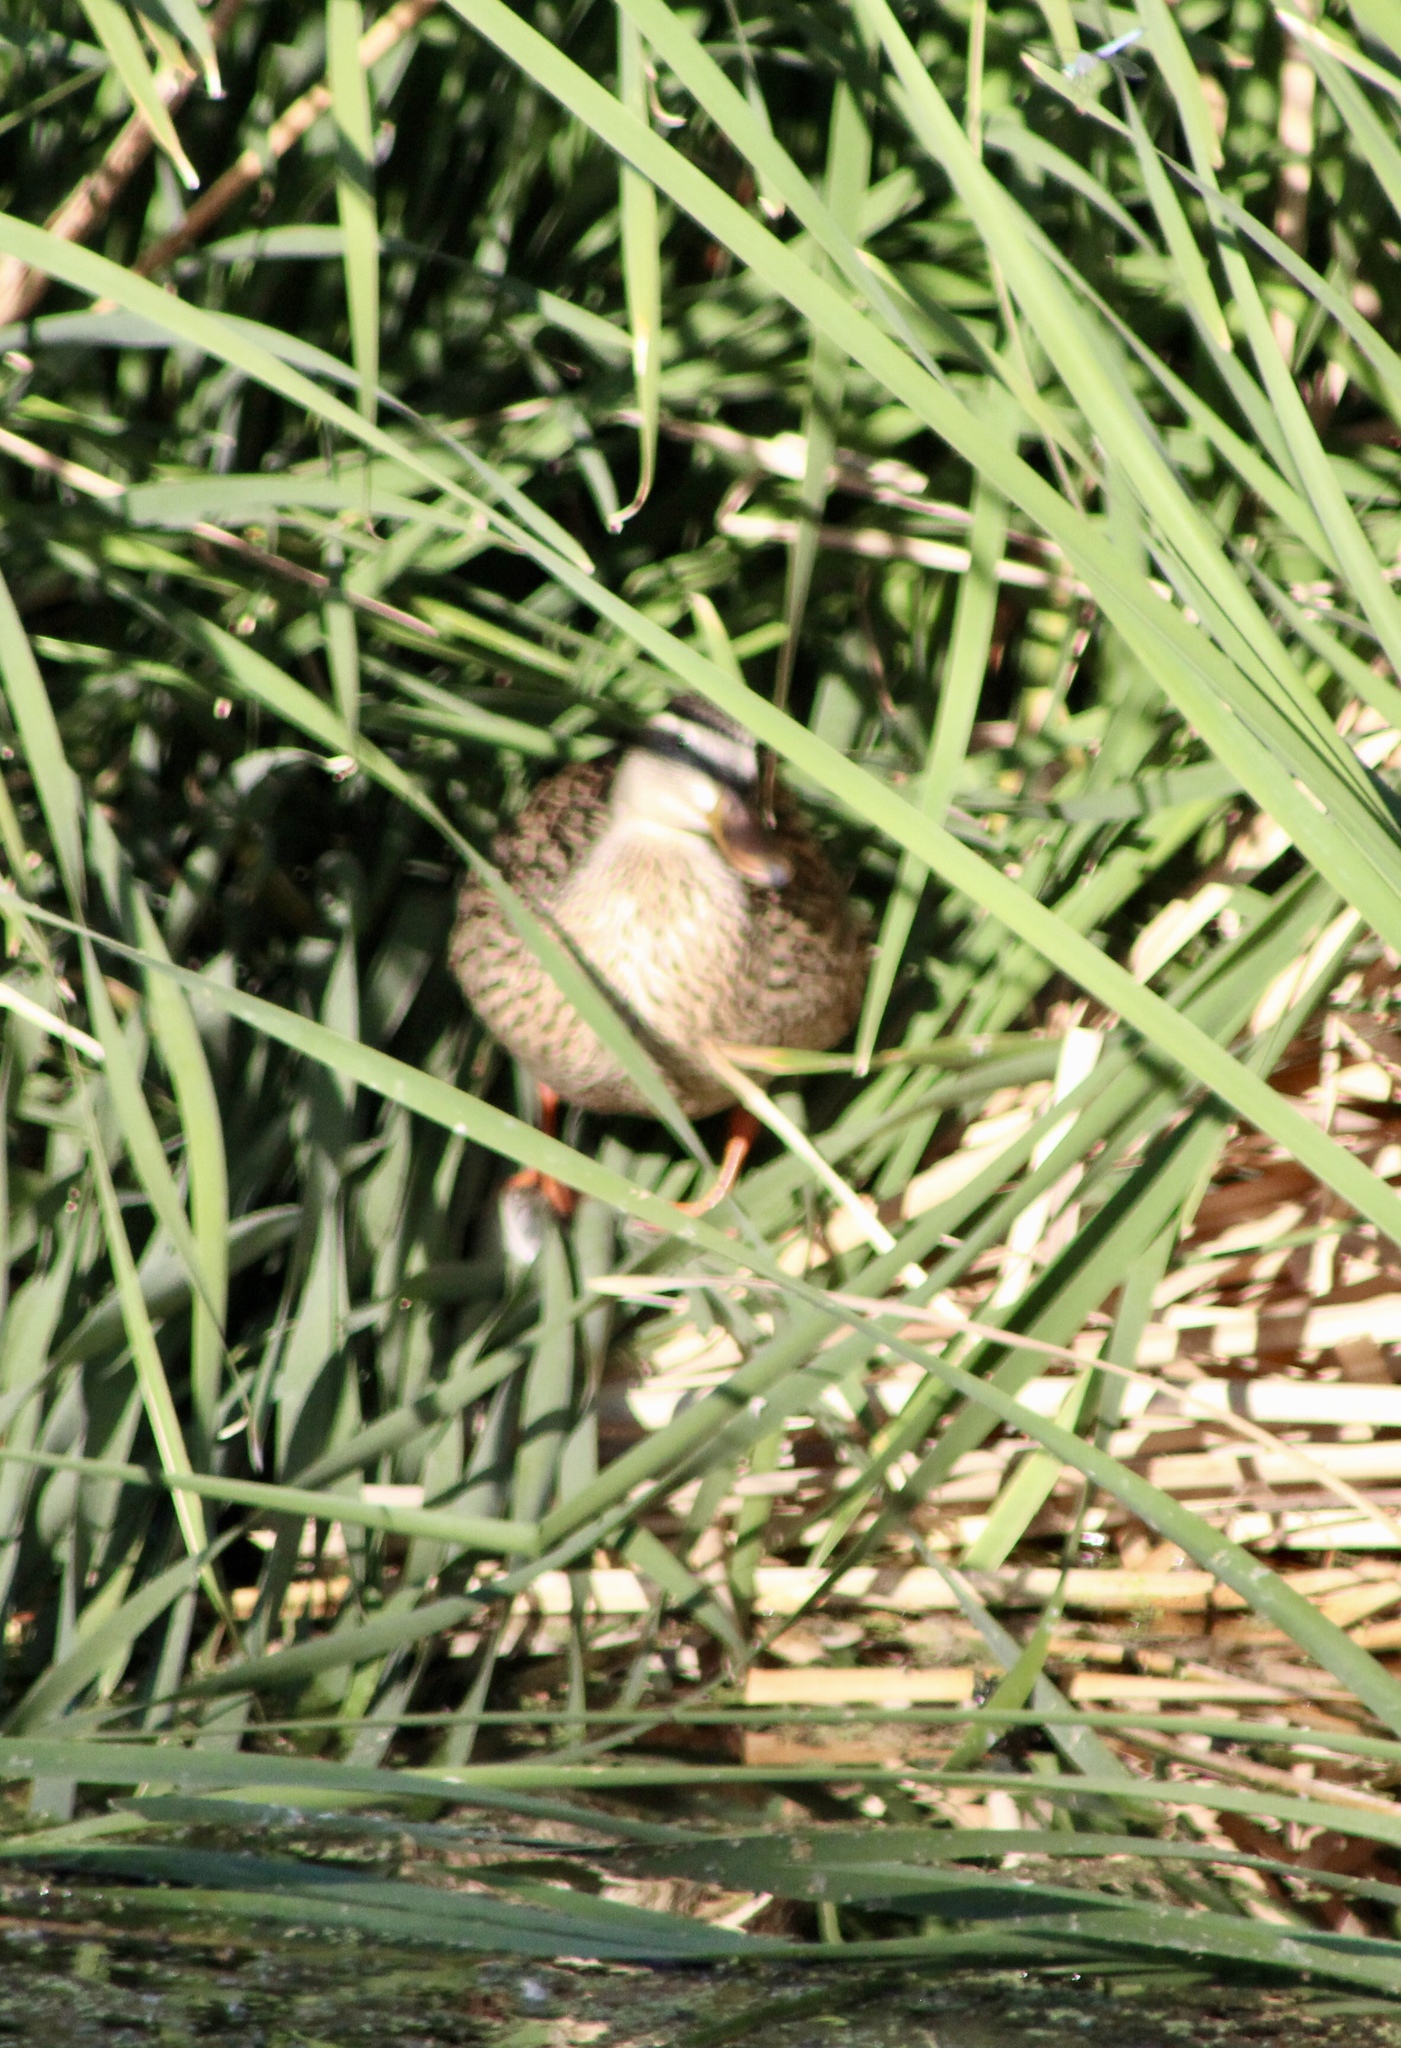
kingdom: Animalia
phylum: Chordata
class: Aves
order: Anseriformes
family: Anatidae
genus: Anas
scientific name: Anas platyrhynchos
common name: Mallard
